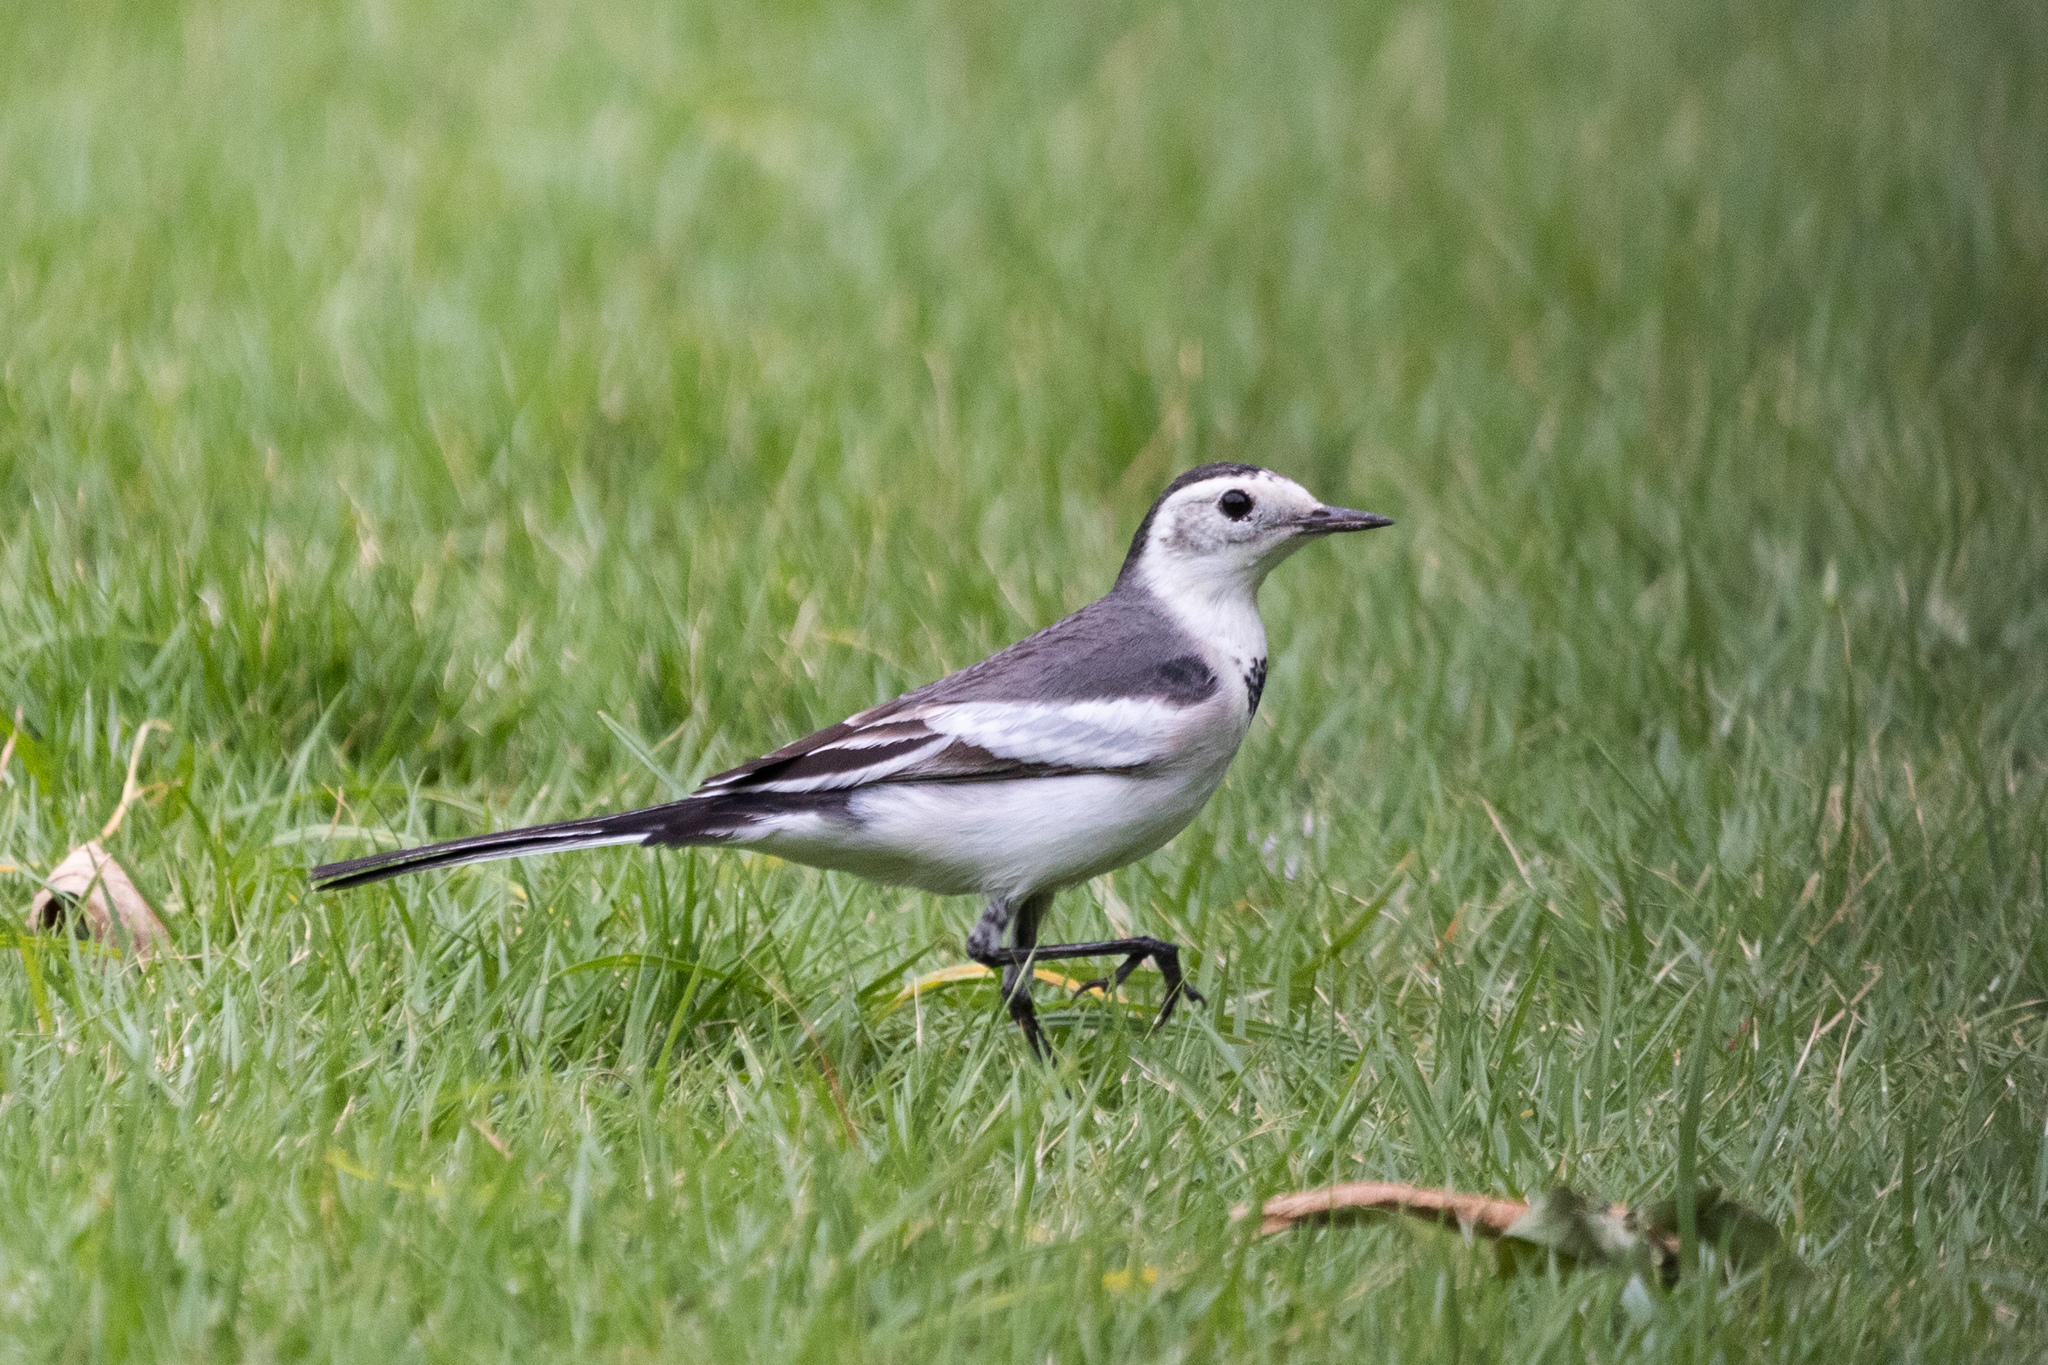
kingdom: Animalia
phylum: Chordata
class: Aves
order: Passeriformes
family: Motacillidae
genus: Motacilla
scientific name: Motacilla alba
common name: White wagtail
